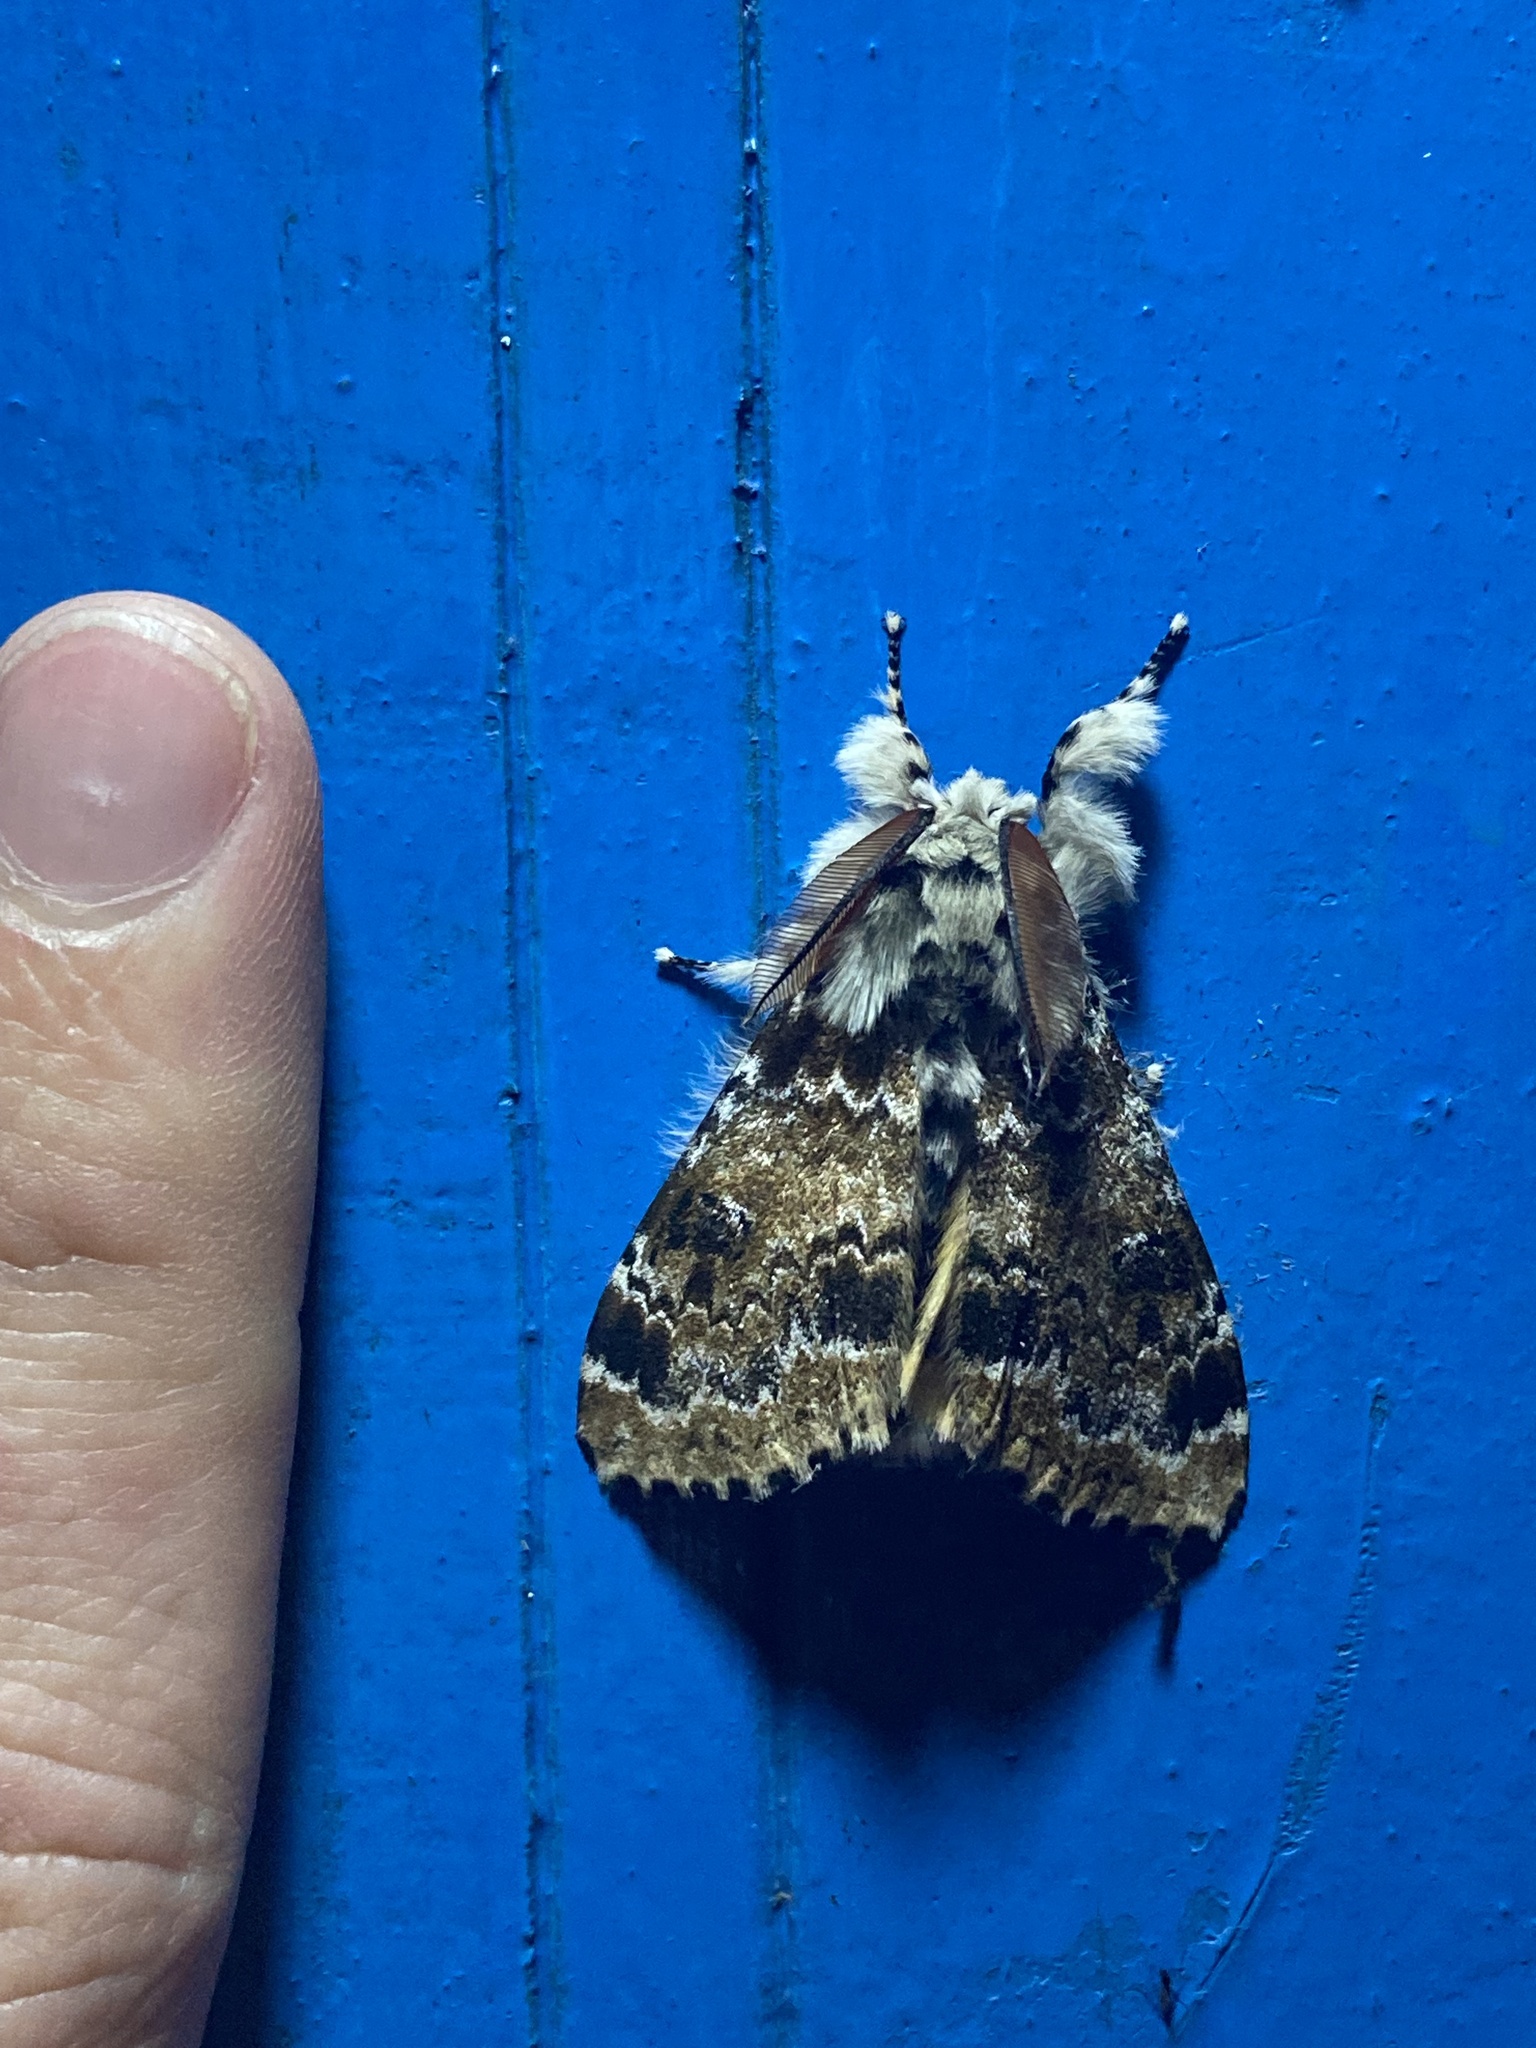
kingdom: Animalia
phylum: Arthropoda
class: Insecta
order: Lepidoptera
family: Erebidae
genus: Calliteara
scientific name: Calliteara complicata
